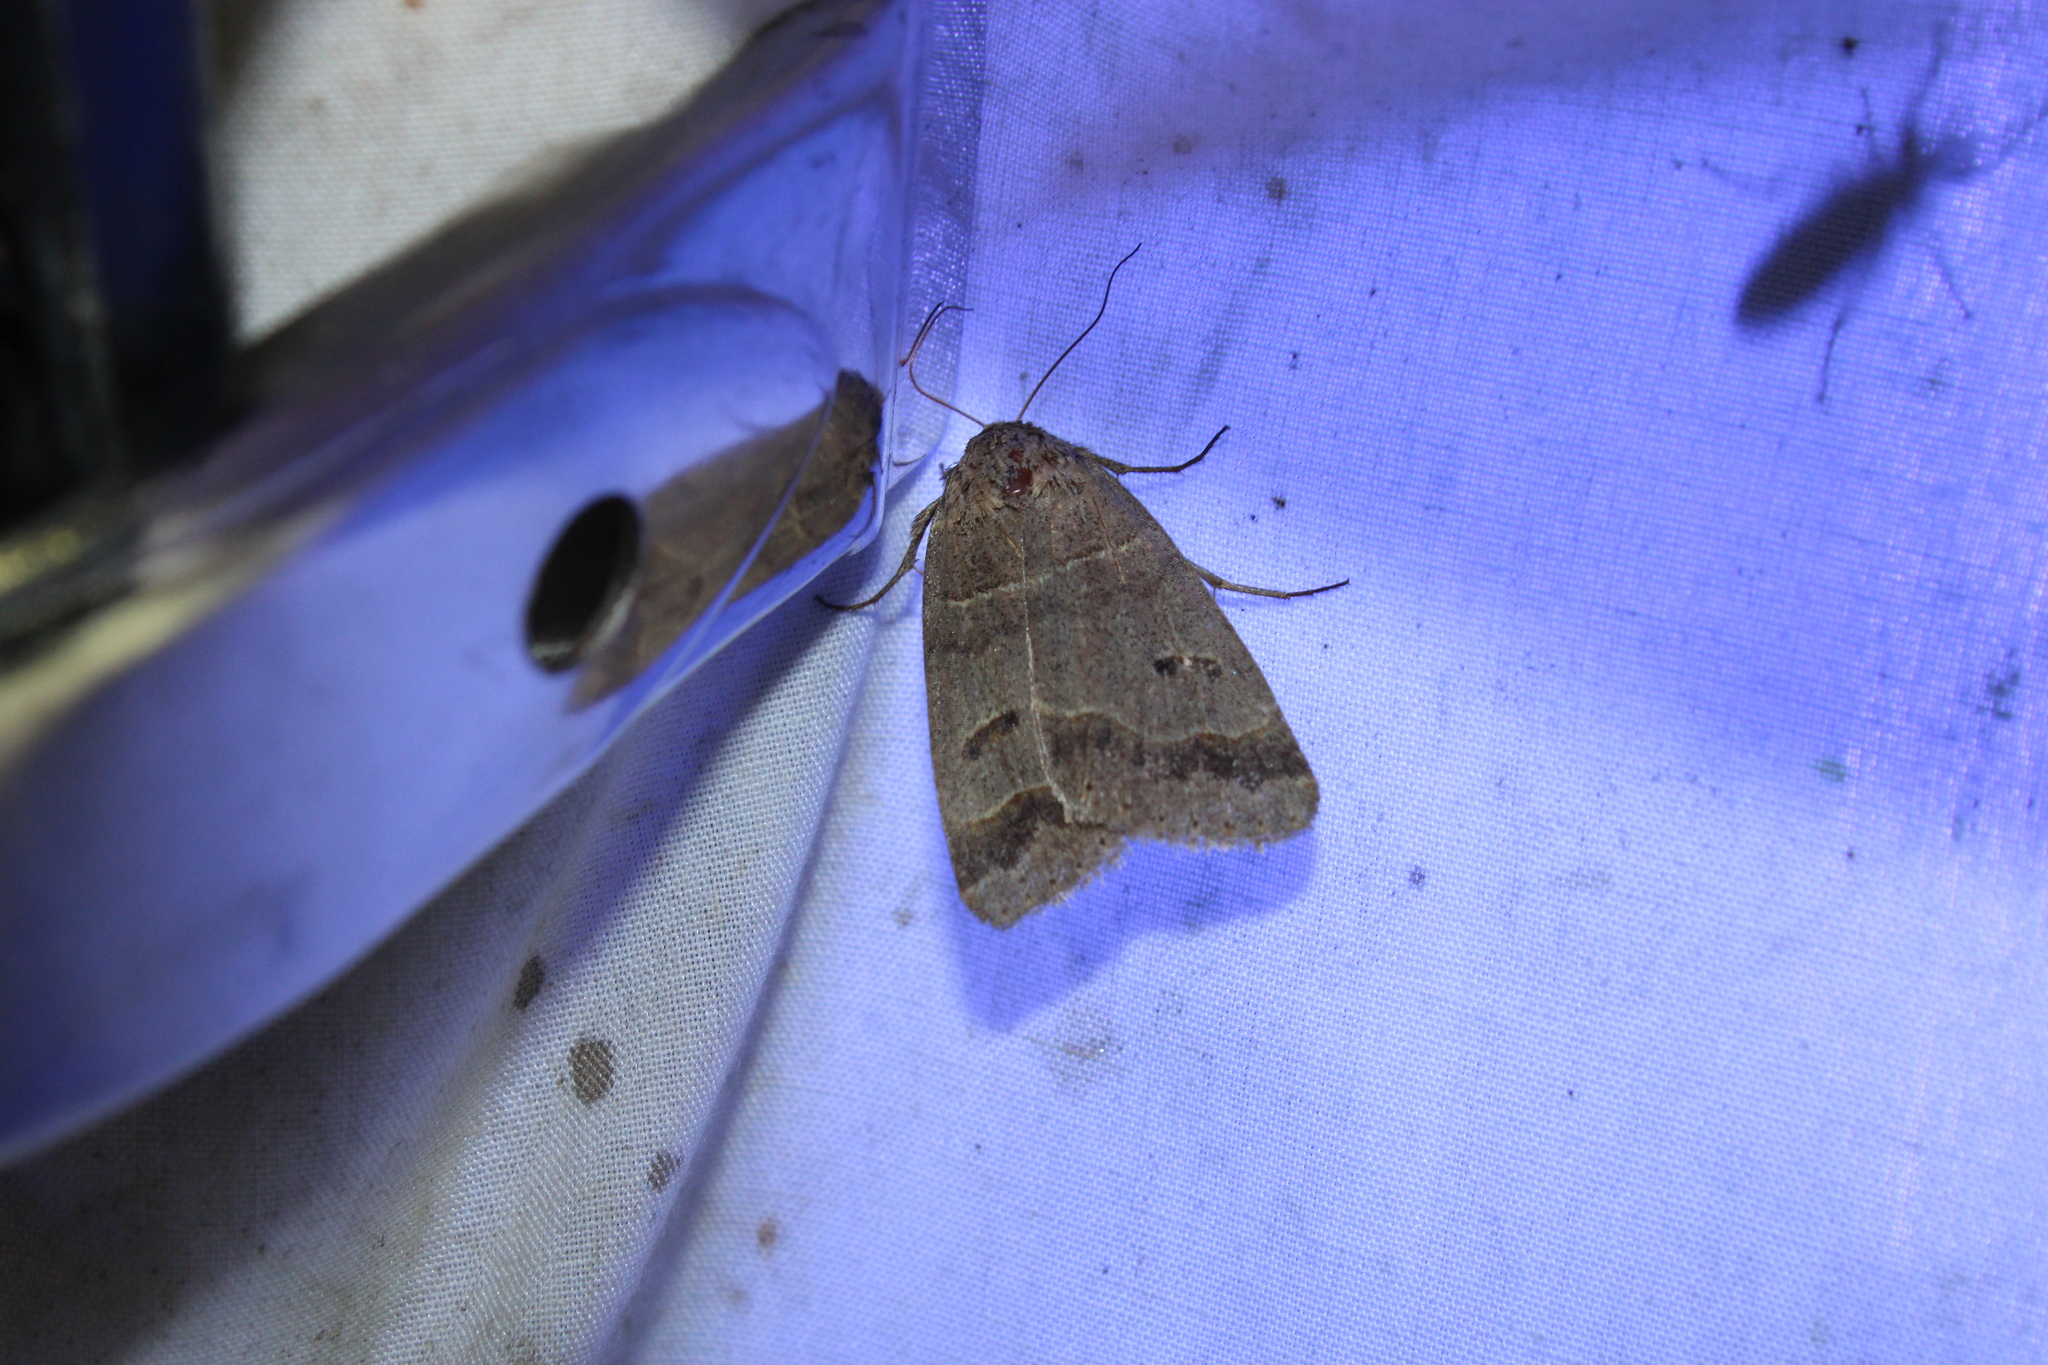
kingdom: Animalia
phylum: Arthropoda
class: Insecta
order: Lepidoptera
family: Erebidae
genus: Phoberia
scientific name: Phoberia atomaris
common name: Common oak moth
